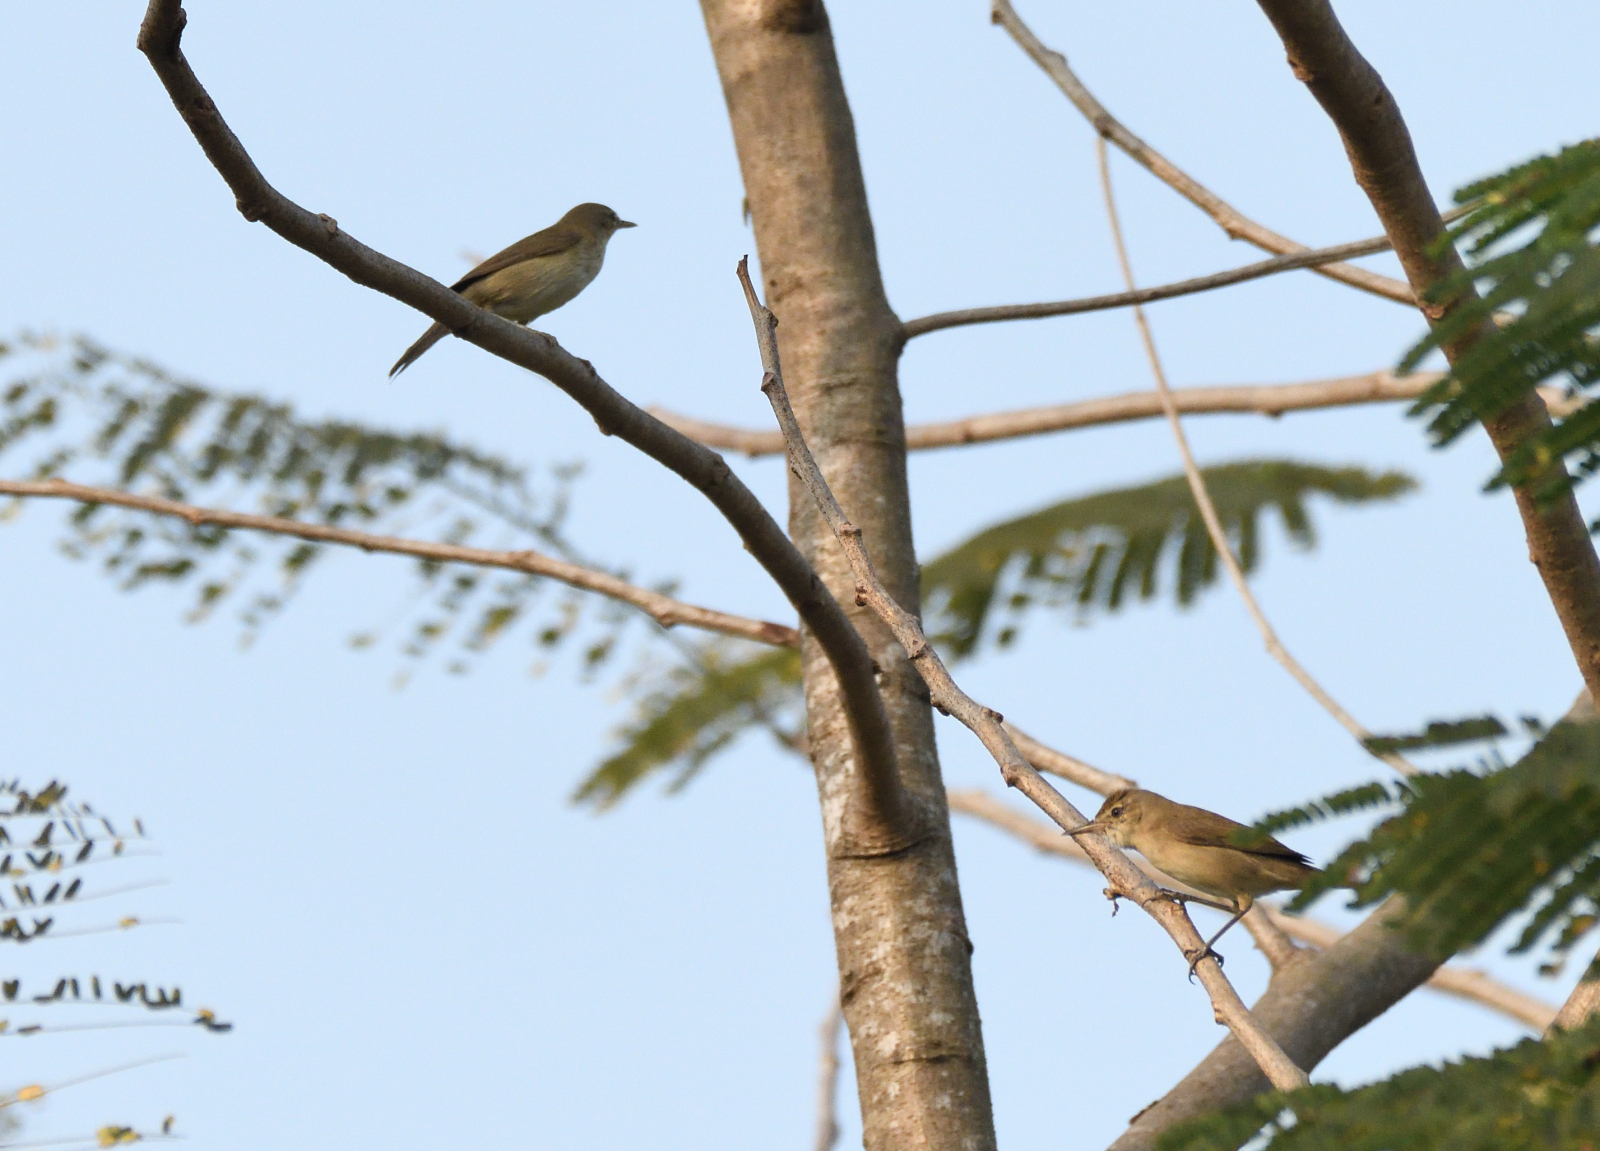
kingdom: Animalia
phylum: Chordata
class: Aves
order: Passeriformes
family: Acrocephalidae
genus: Acrocephalus
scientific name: Acrocephalus dumetorum
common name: Blyth's reed warbler
